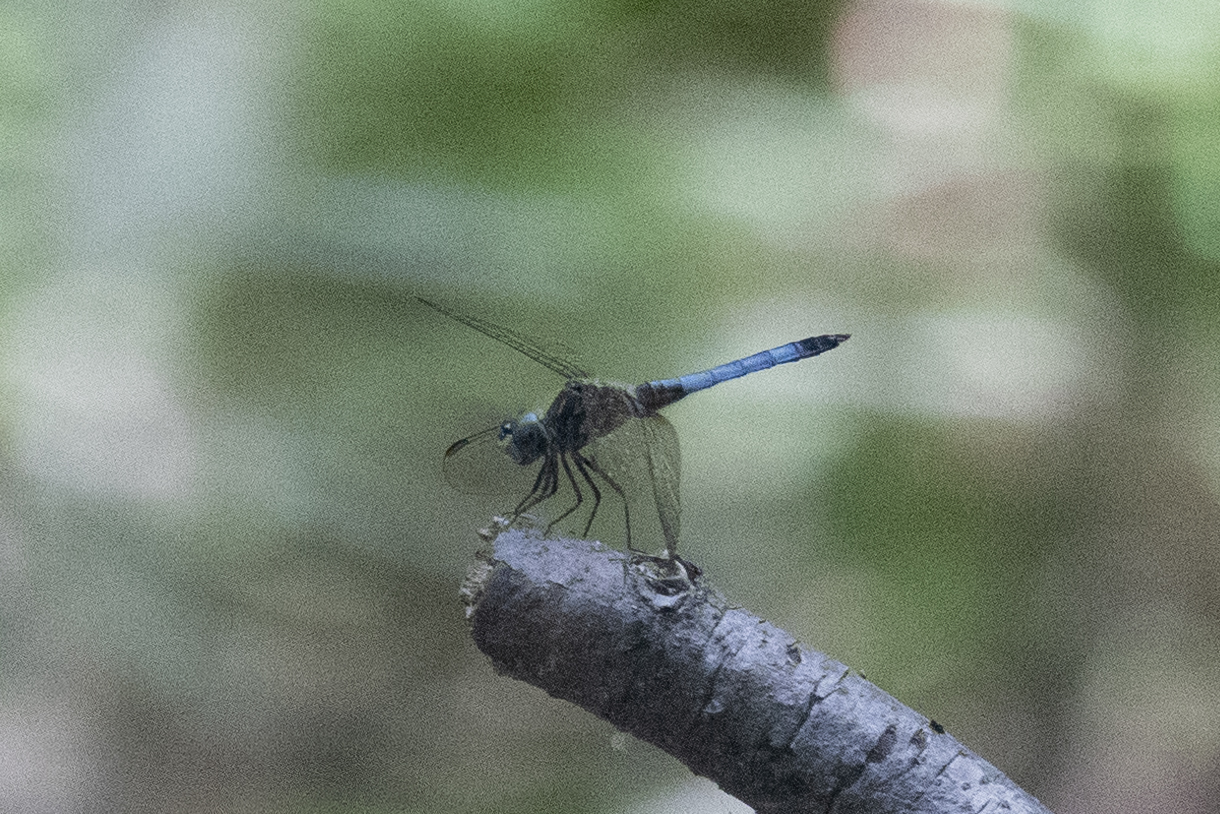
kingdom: Animalia
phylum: Arthropoda
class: Insecta
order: Odonata
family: Libellulidae
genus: Pachydiplax
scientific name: Pachydiplax longipennis
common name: Blue dasher
